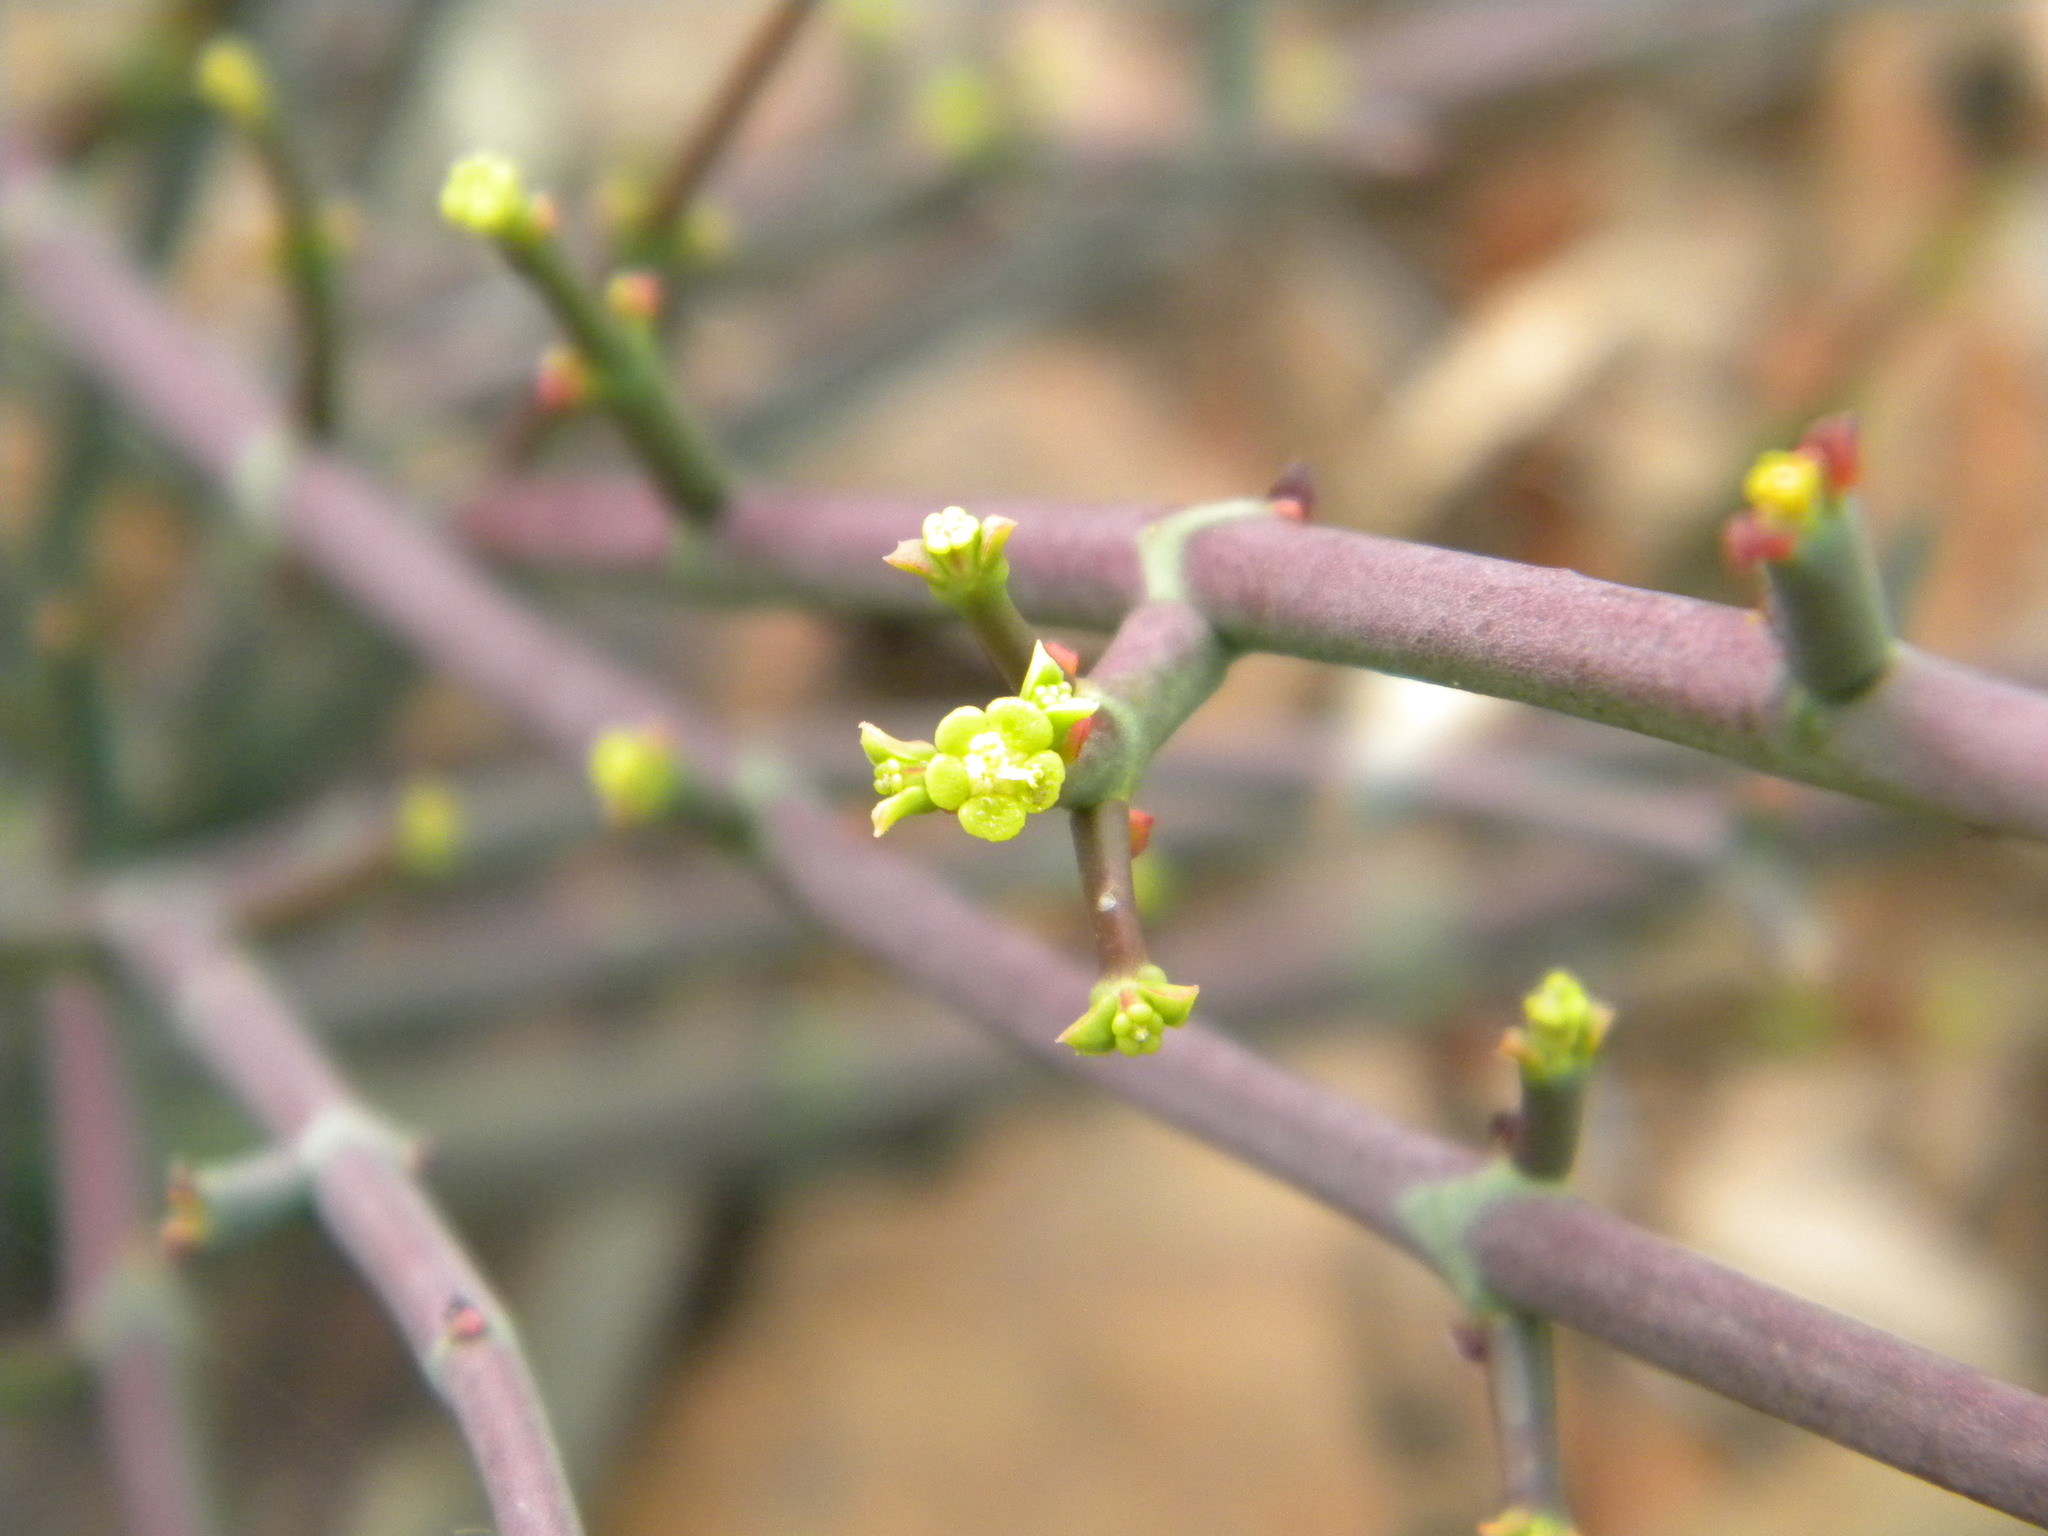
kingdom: Plantae
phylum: Tracheophyta
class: Magnoliopsida
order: Malpighiales
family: Euphorbiaceae
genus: Euphorbia
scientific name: Euphorbia rhombifolia
